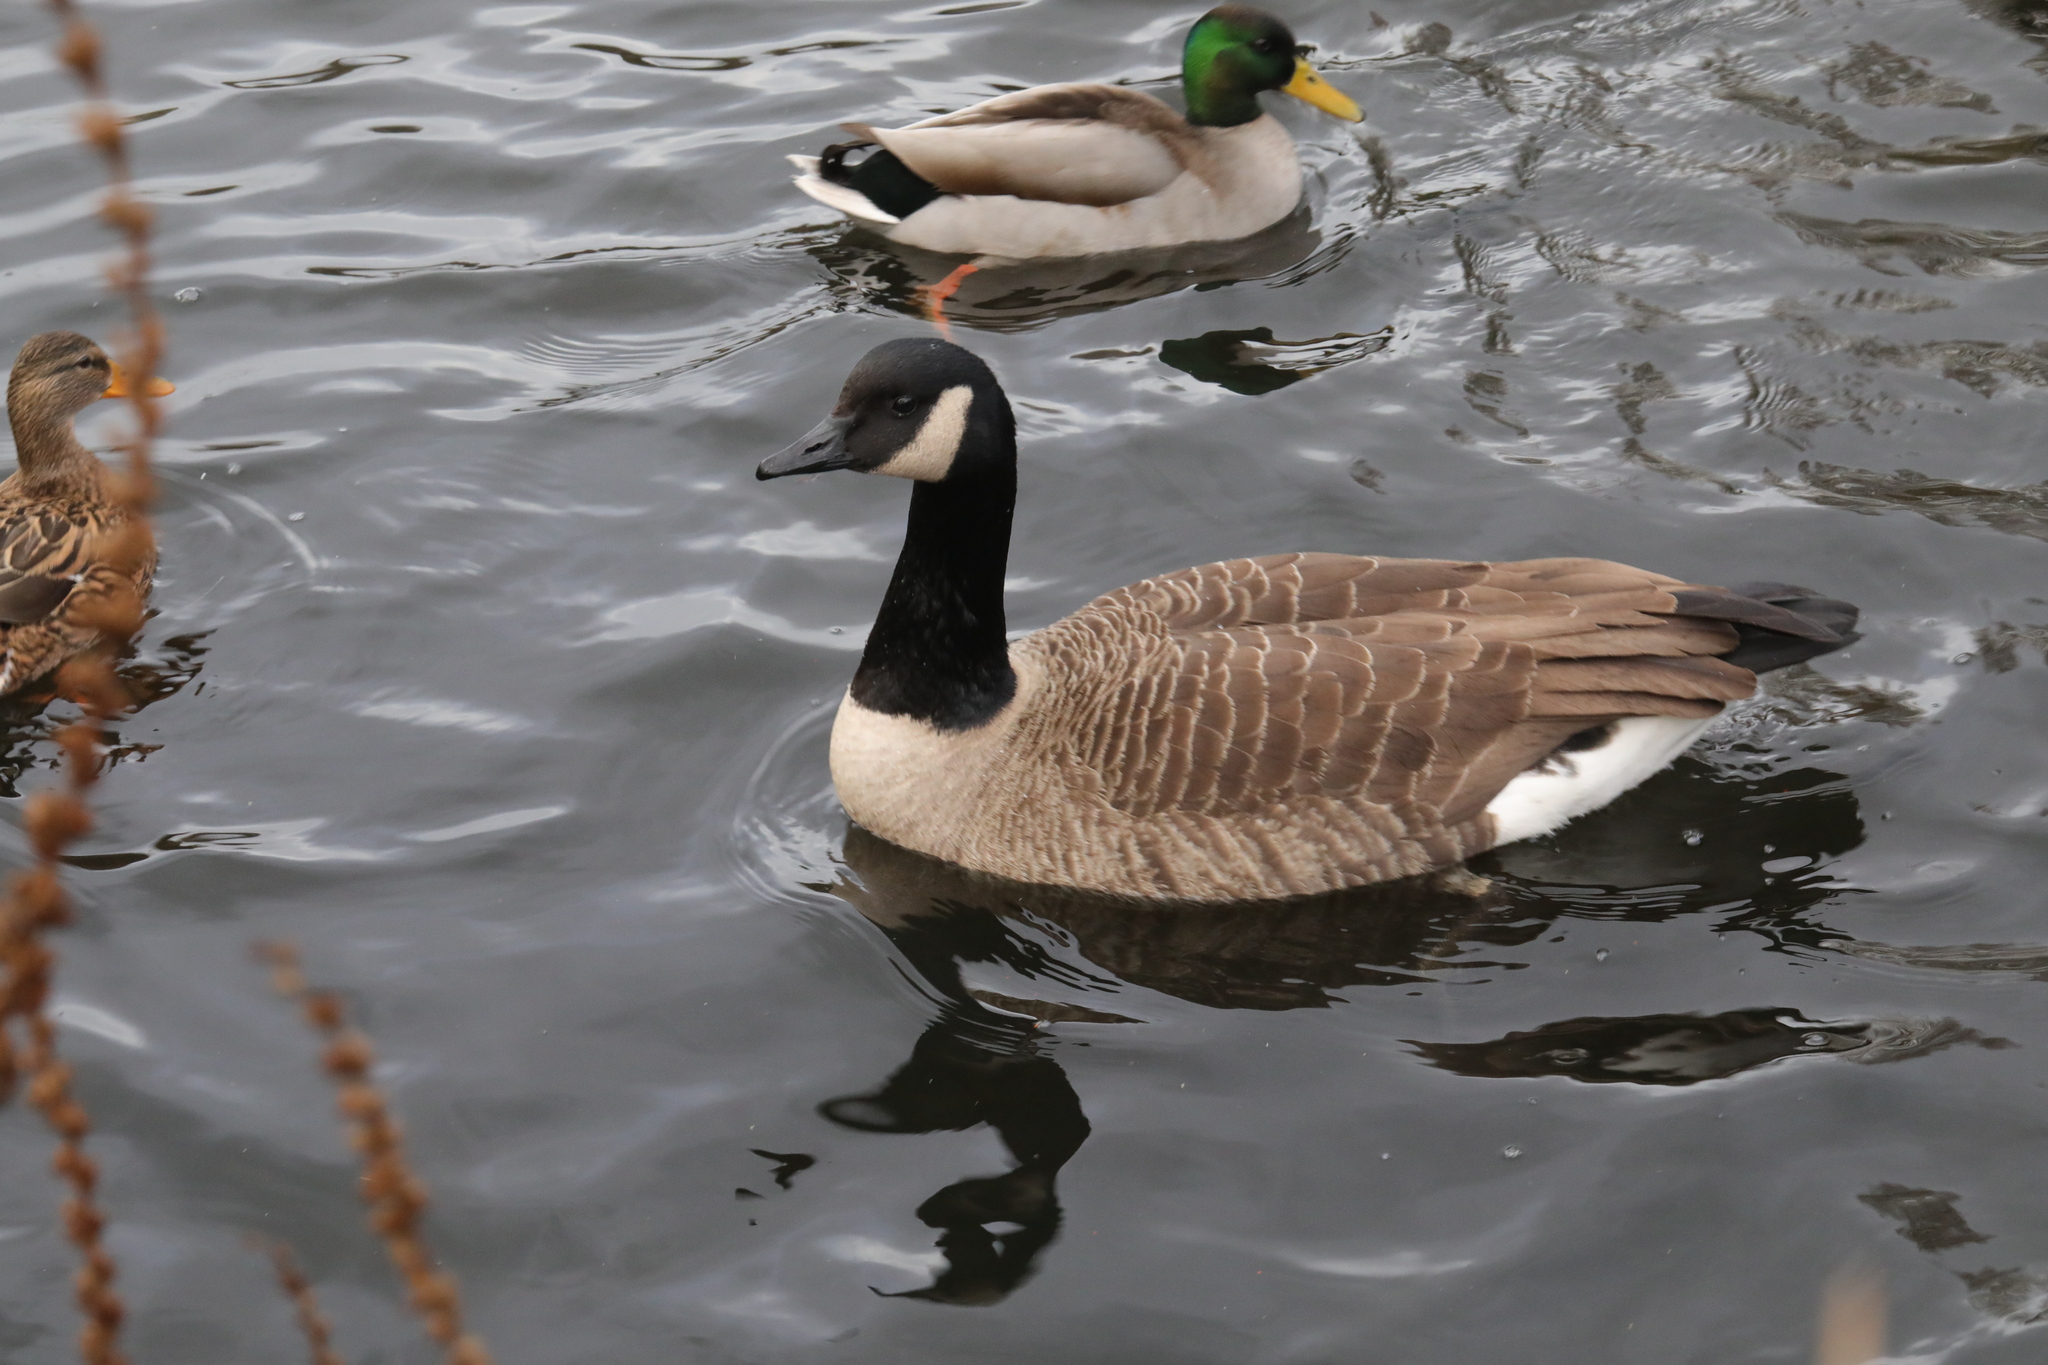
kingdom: Animalia
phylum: Chordata
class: Aves
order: Anseriformes
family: Anatidae
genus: Branta
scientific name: Branta canadensis
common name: Canada goose
